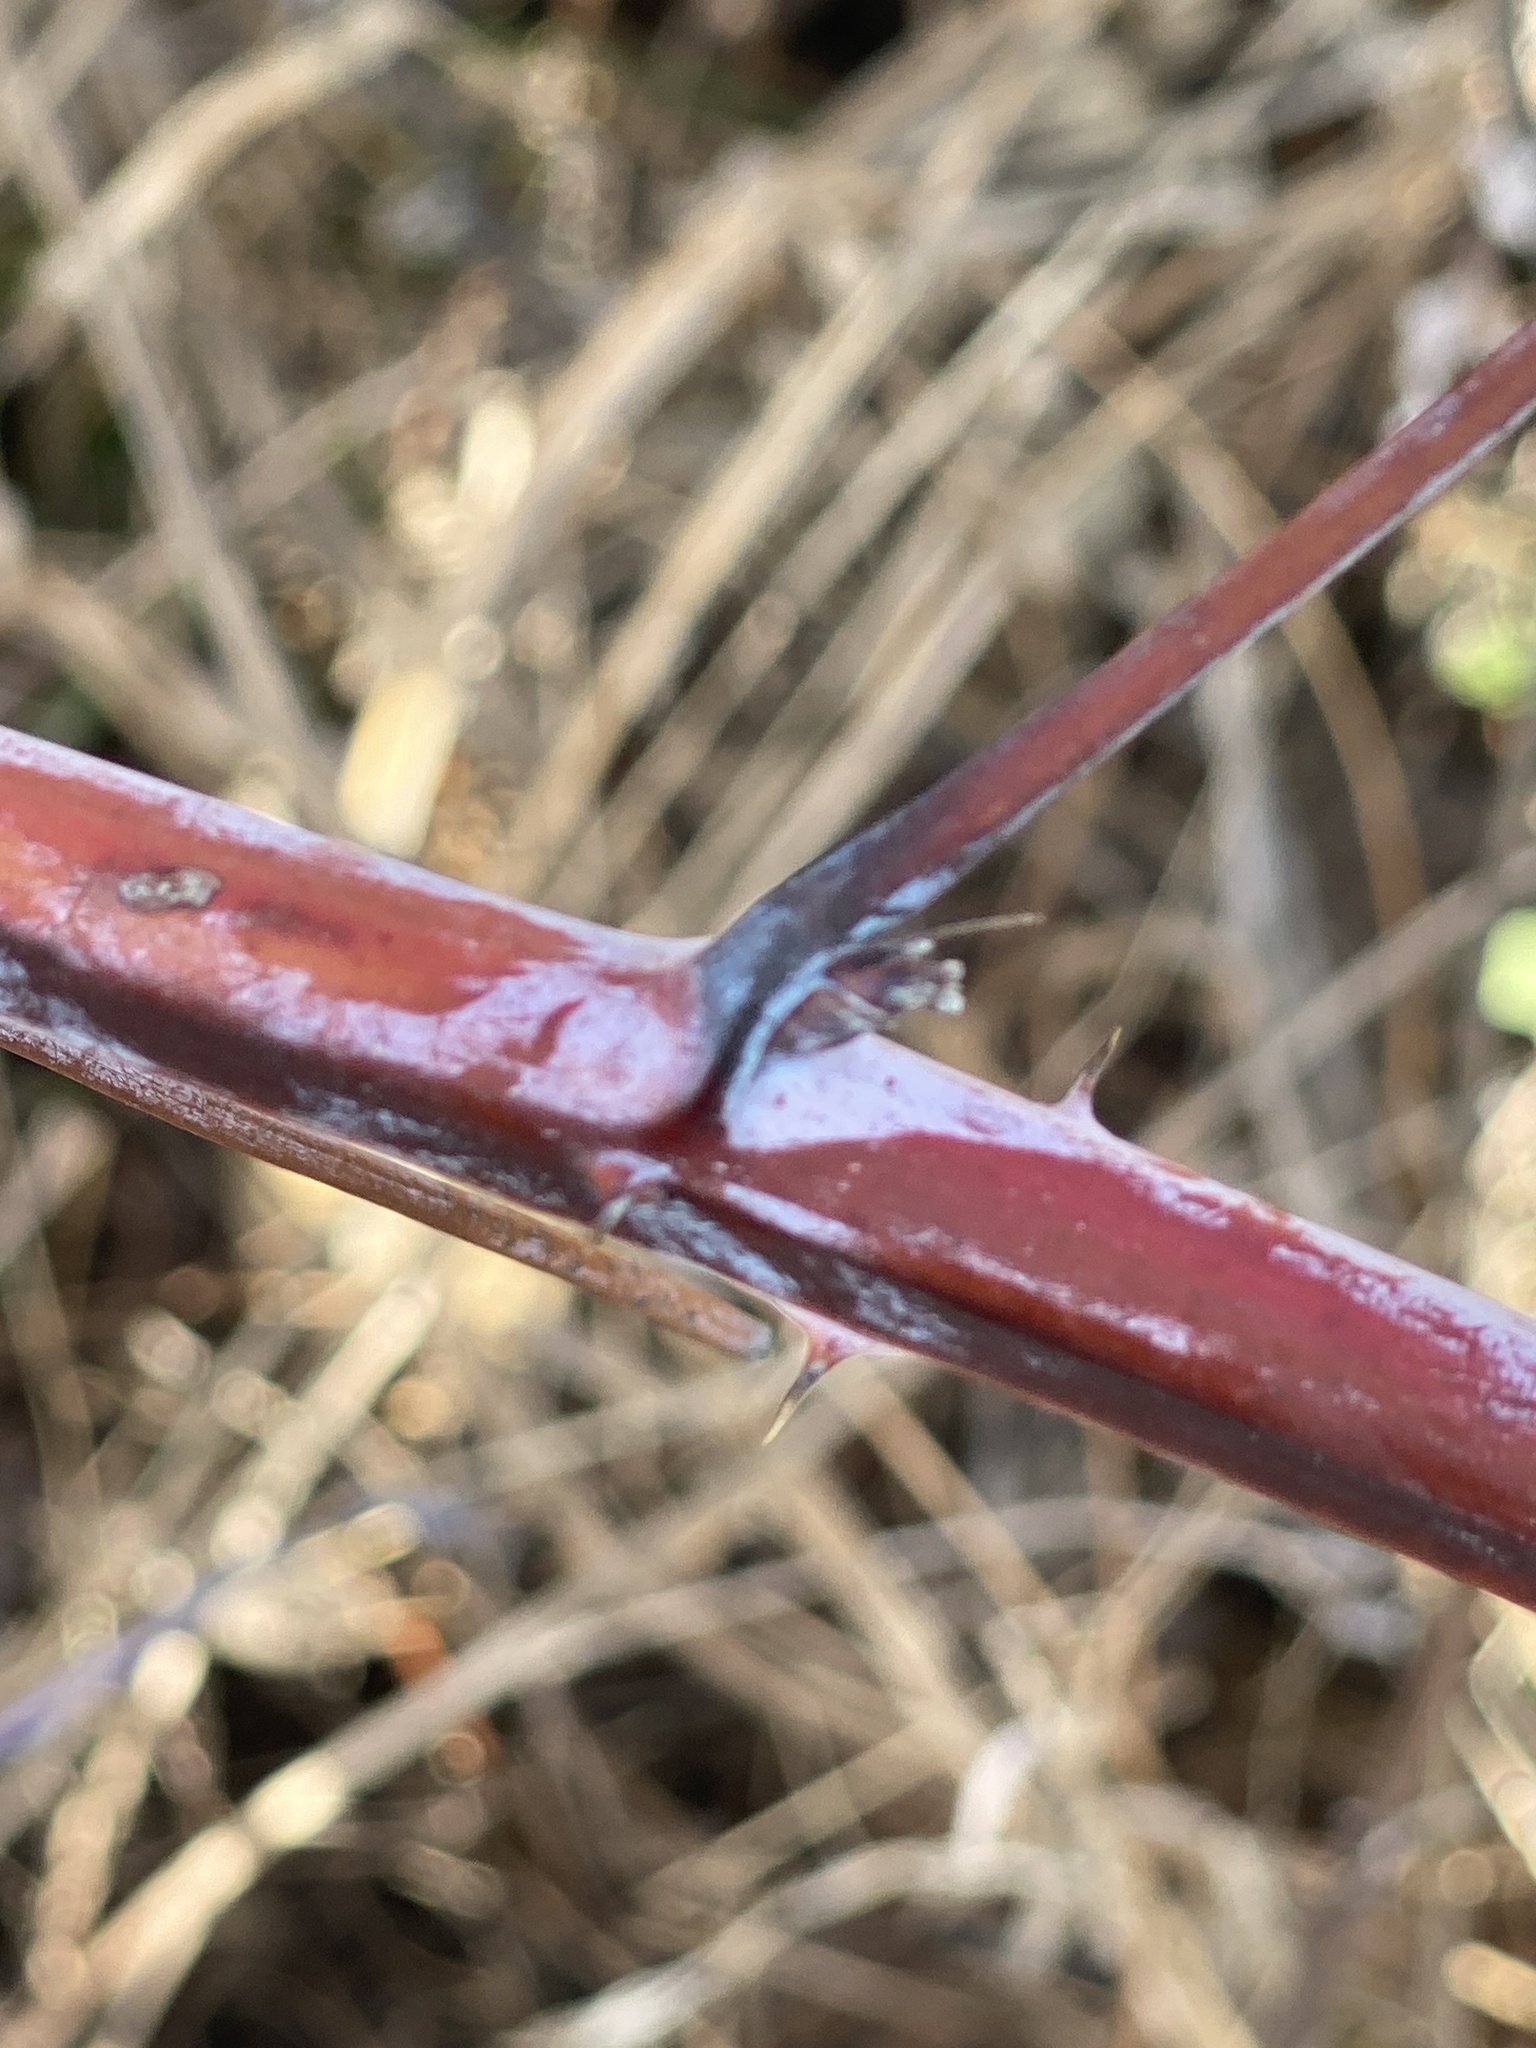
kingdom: Plantae
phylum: Tracheophyta
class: Magnoliopsida
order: Rosales
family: Rosaceae
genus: Rubus
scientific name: Rubus occidentalis
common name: Black raspberry
